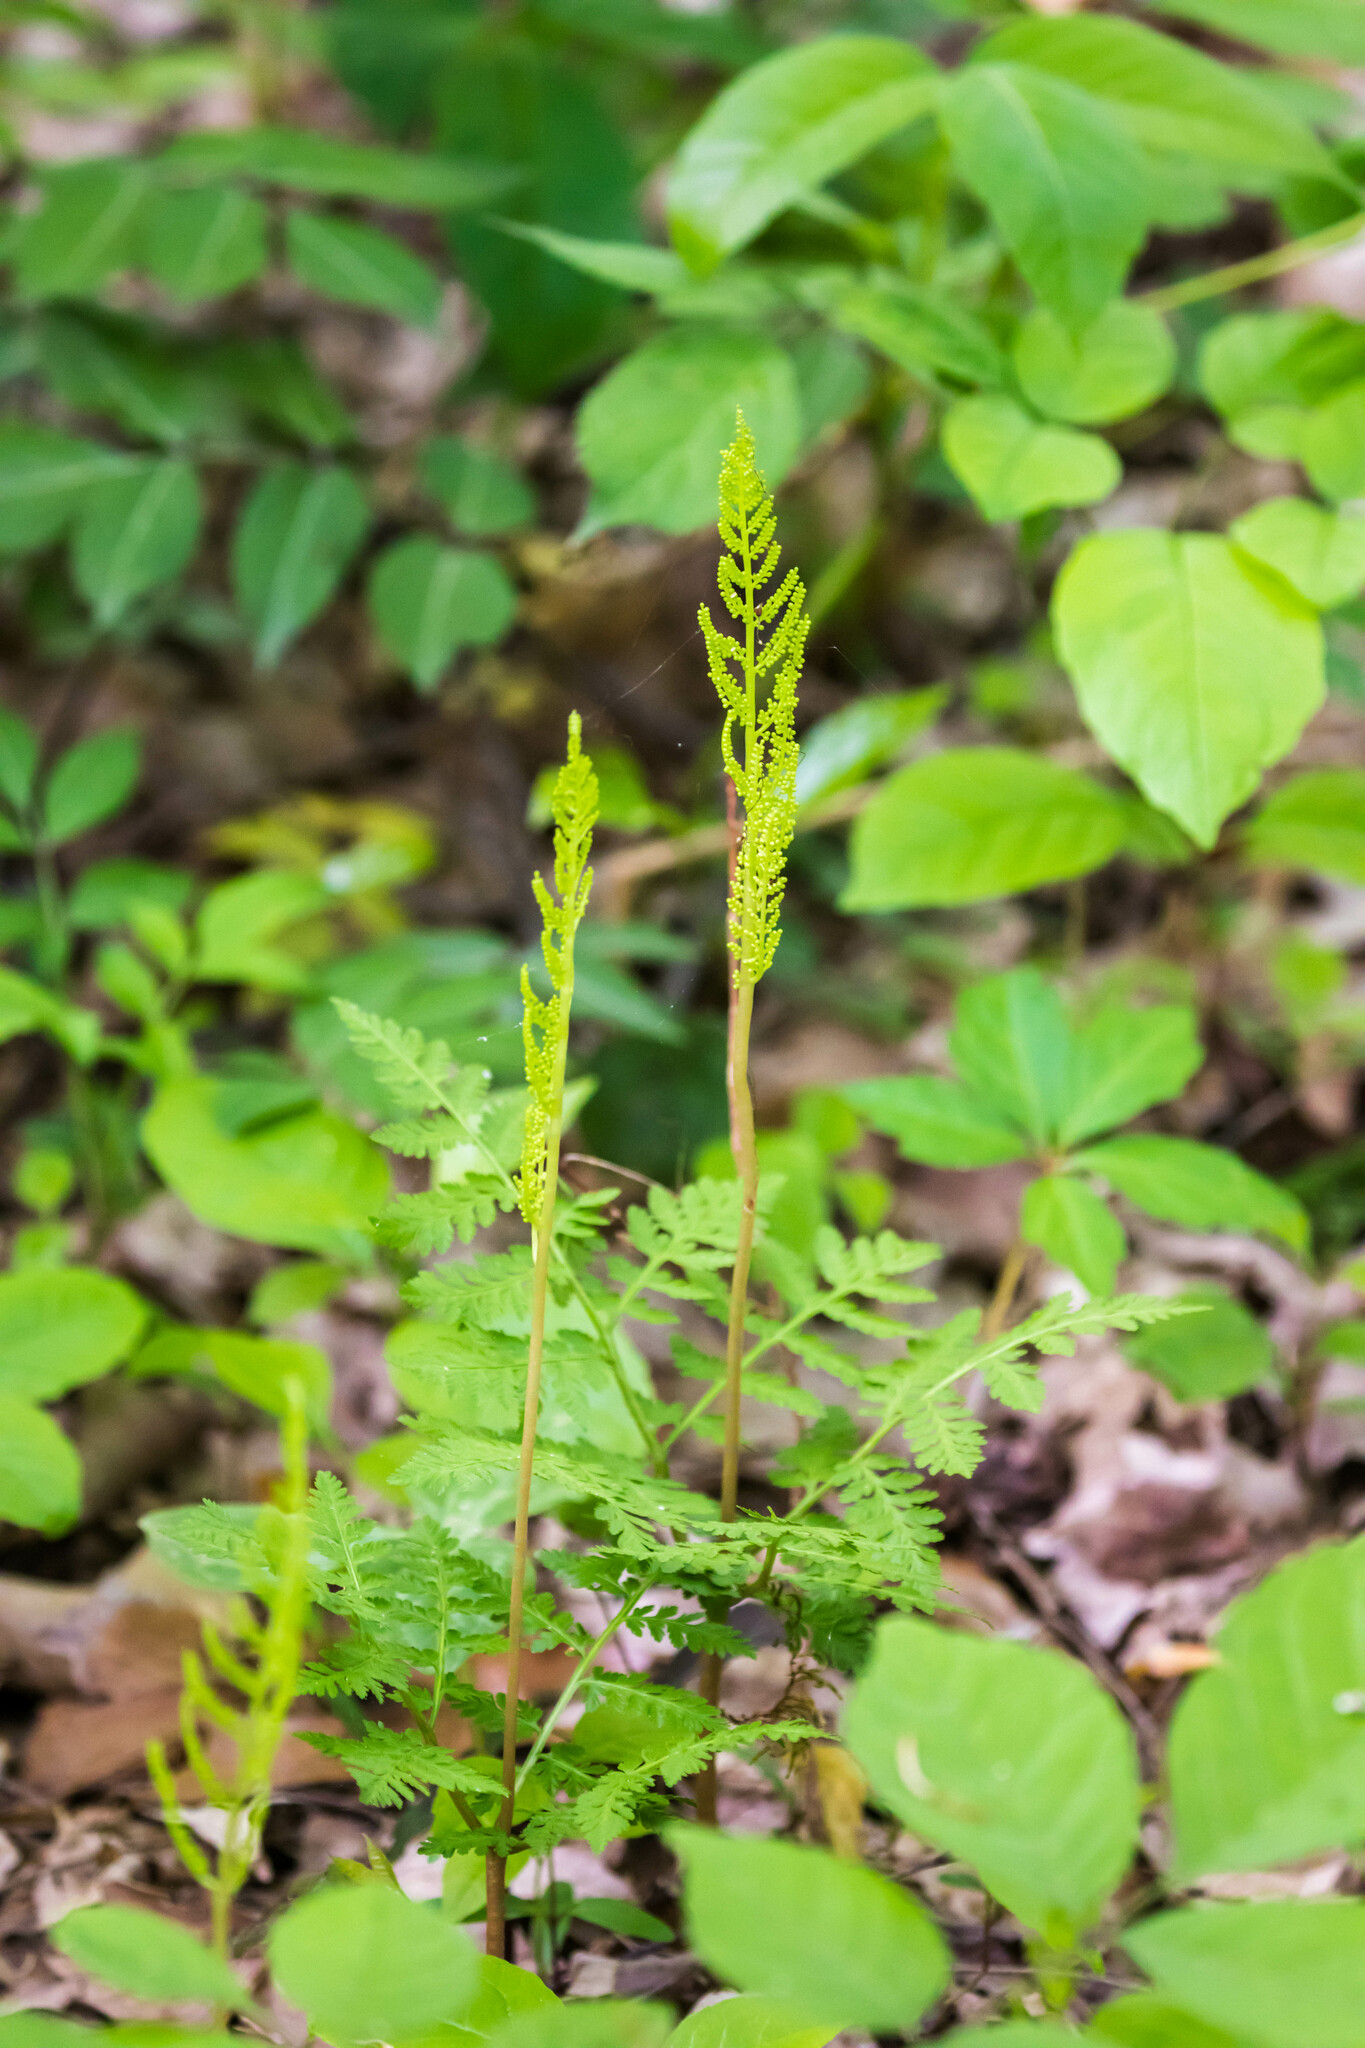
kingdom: Plantae
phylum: Tracheophyta
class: Polypodiopsida
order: Ophioglossales
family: Ophioglossaceae
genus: Botrypus
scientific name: Botrypus virginianus
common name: Common grapefern
